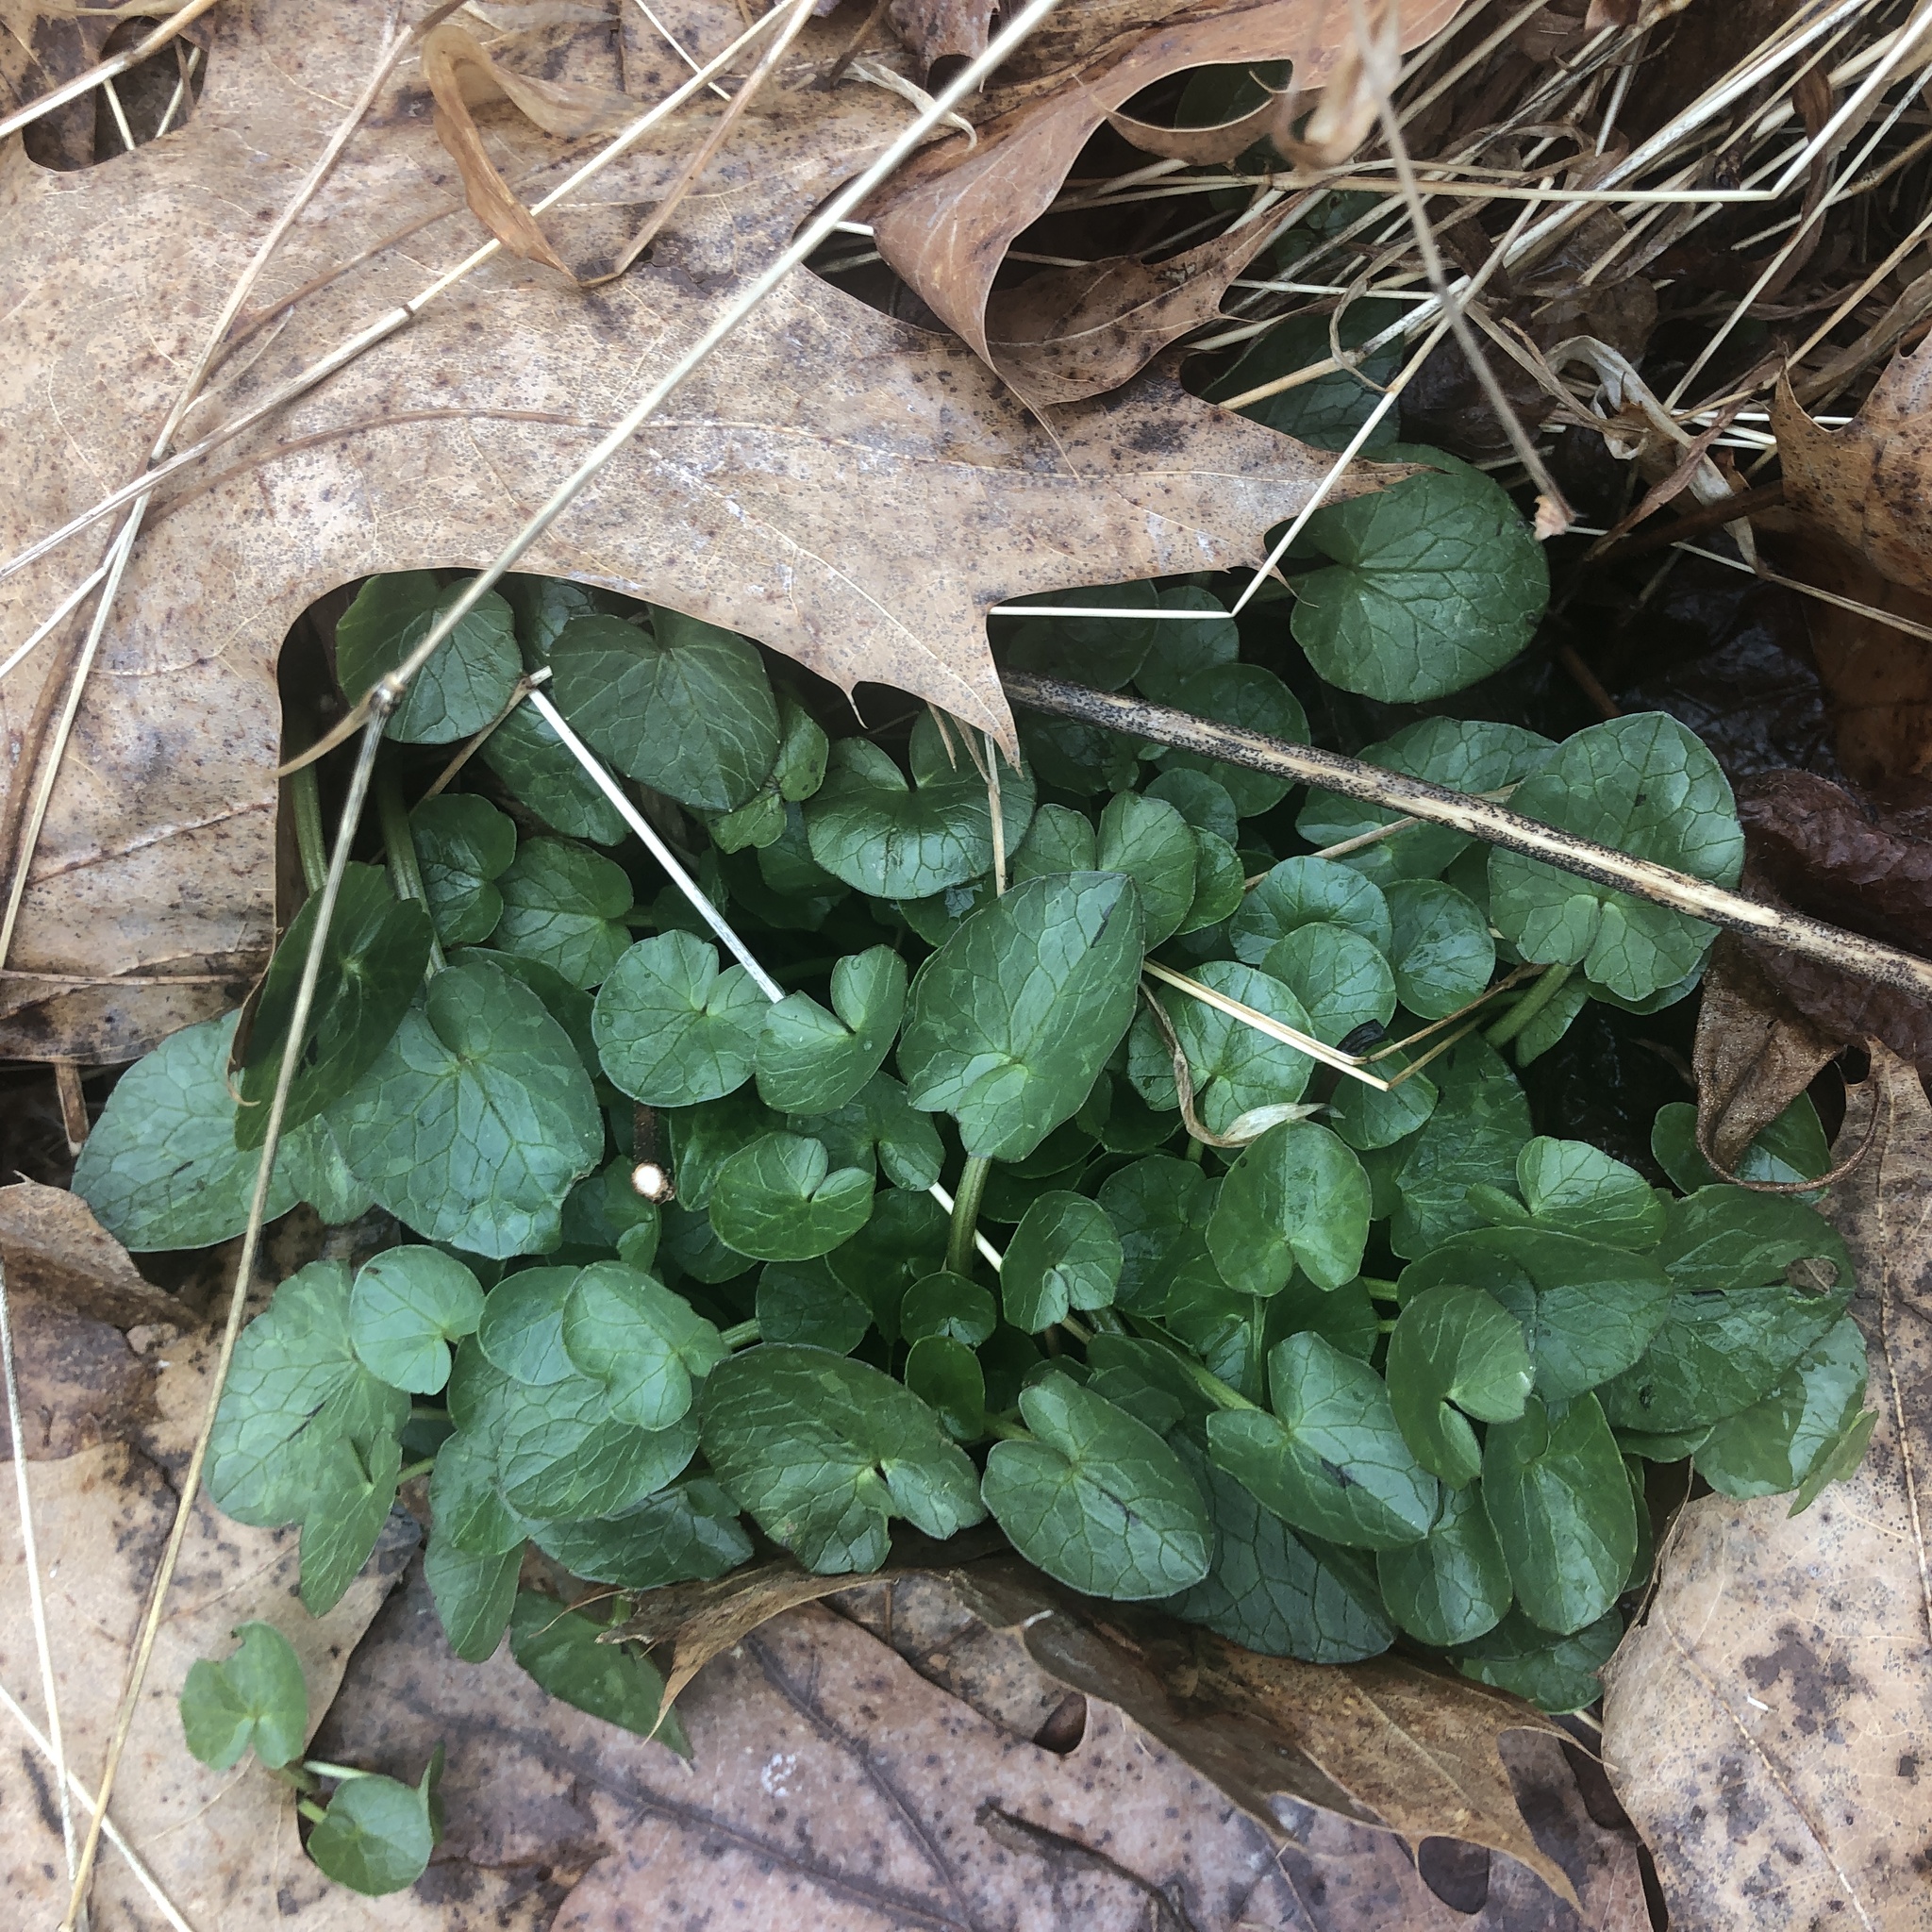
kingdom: Plantae
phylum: Tracheophyta
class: Magnoliopsida
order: Ranunculales
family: Ranunculaceae
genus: Ficaria
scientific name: Ficaria verna
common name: Lesser celandine
